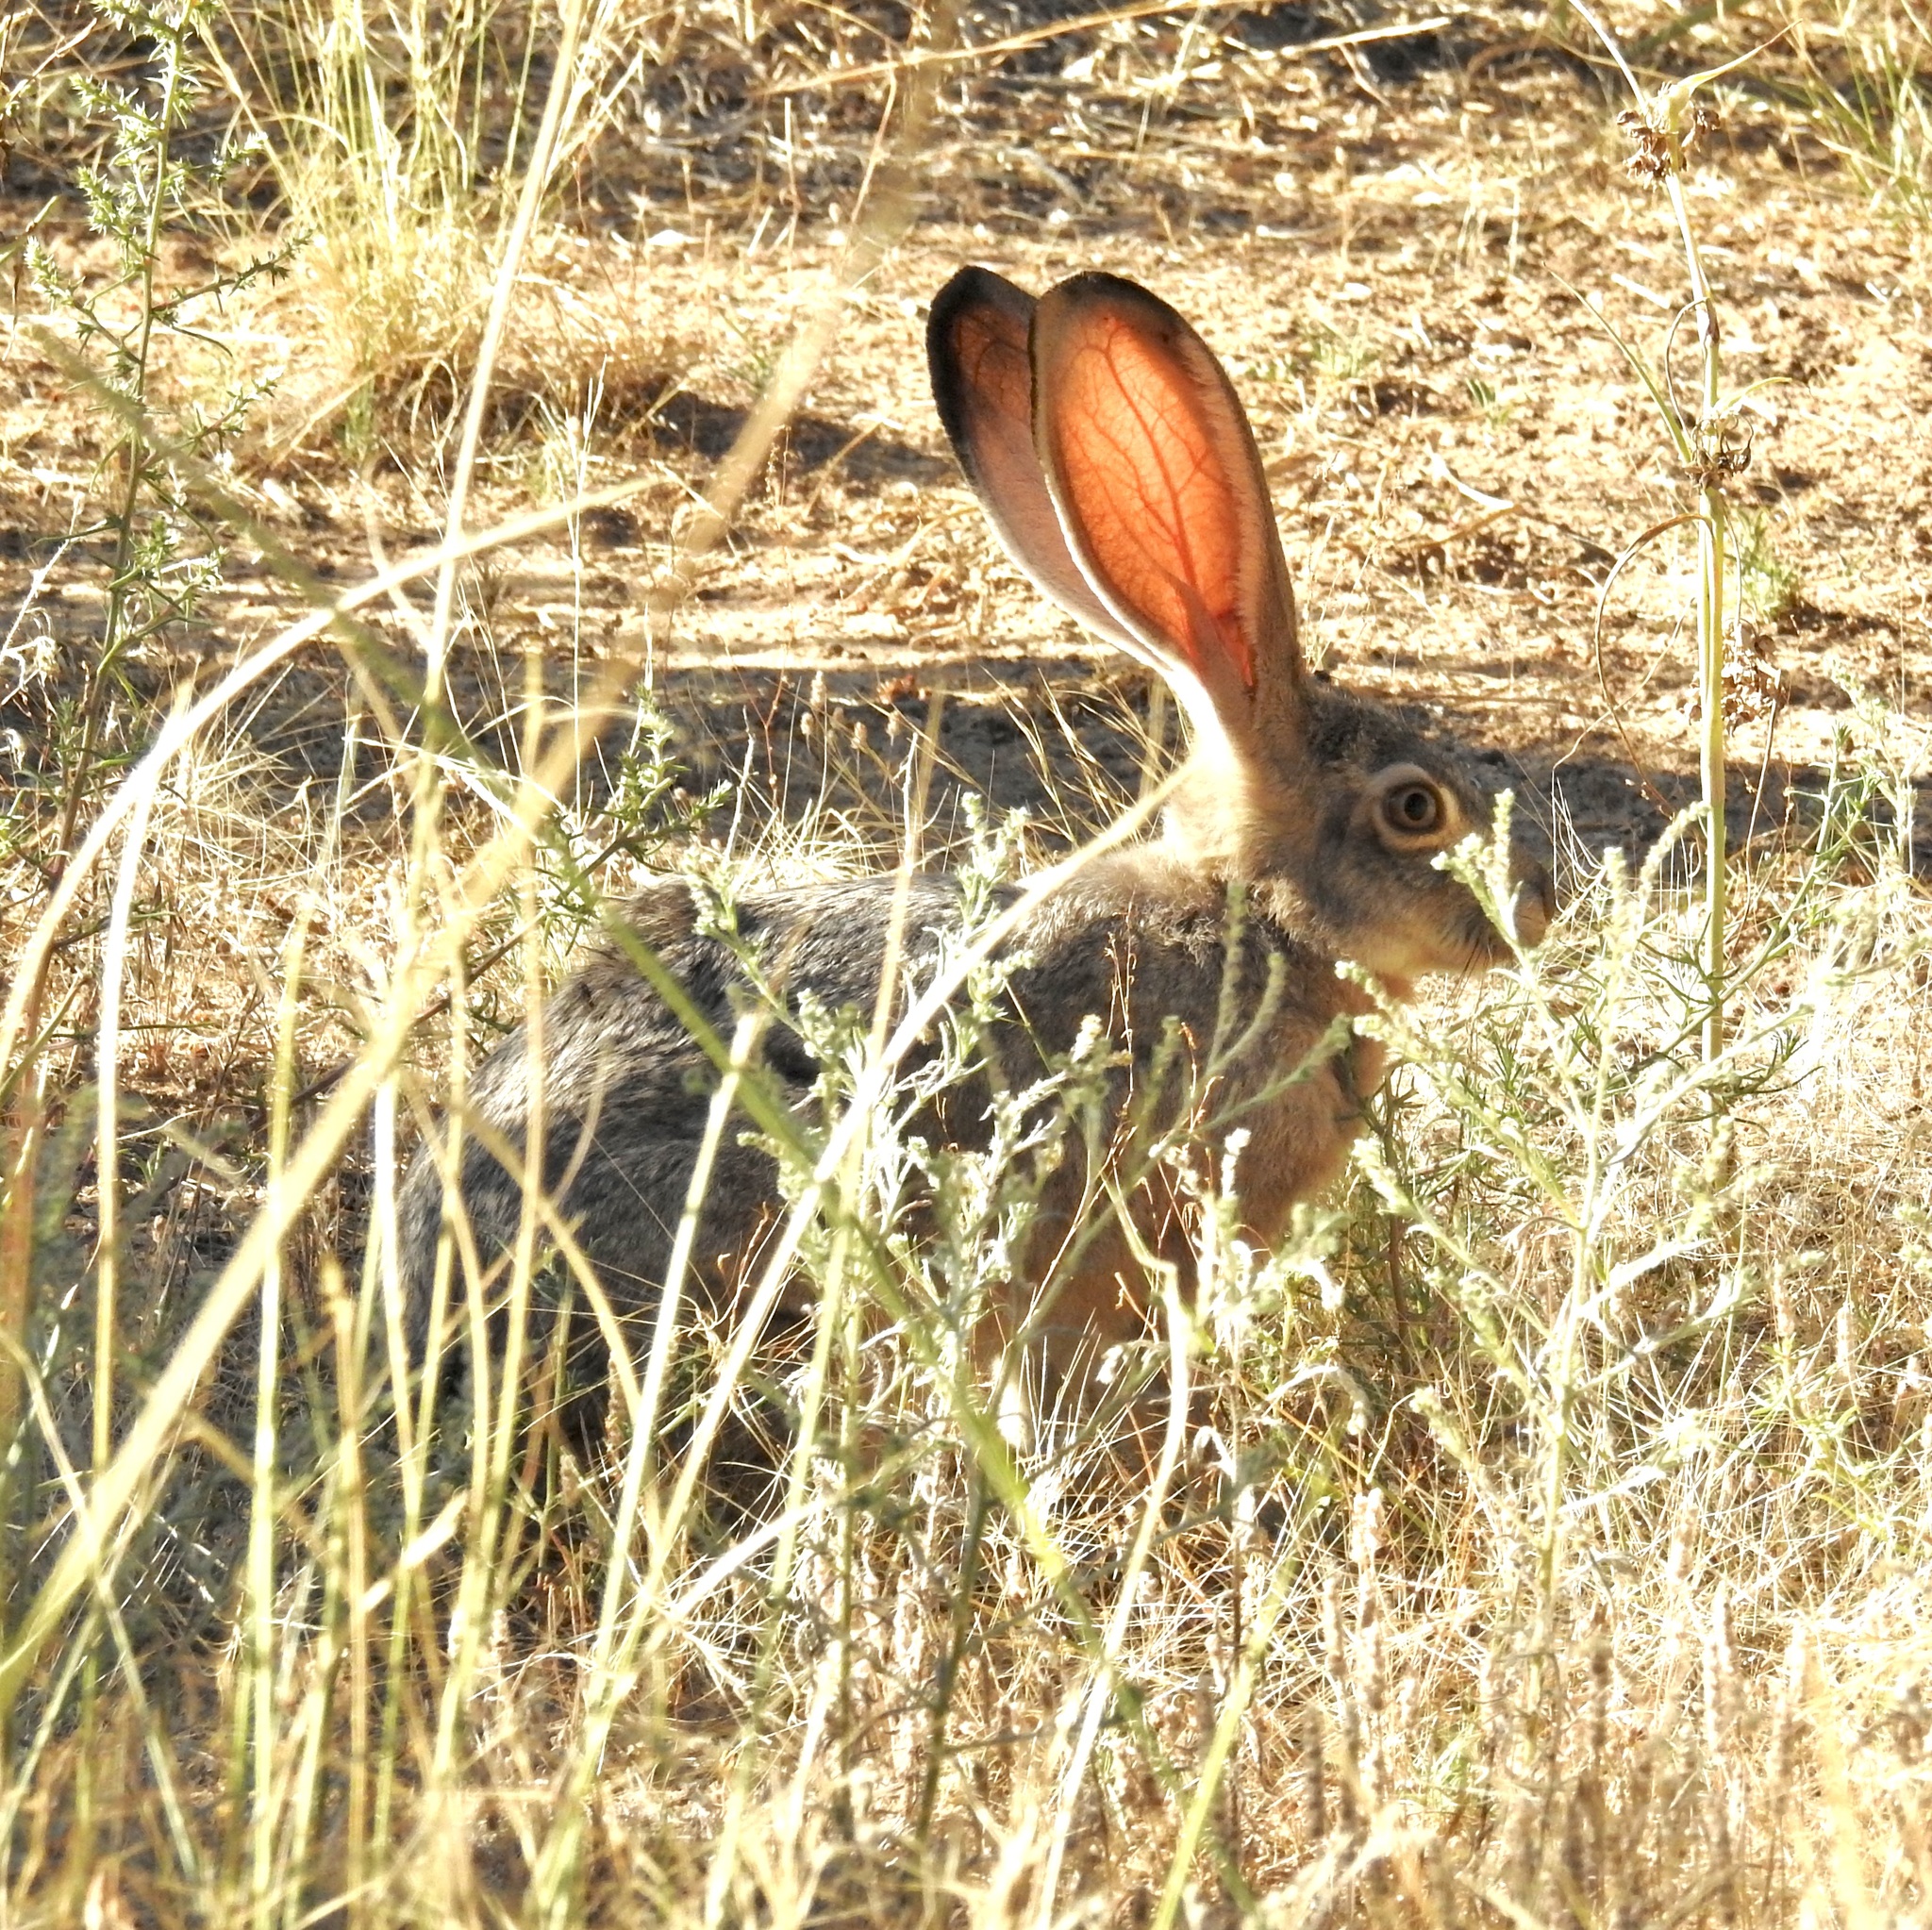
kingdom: Animalia
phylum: Chordata
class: Mammalia
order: Lagomorpha
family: Leporidae
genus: Lepus
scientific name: Lepus californicus
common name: Black-tailed jackrabbit
